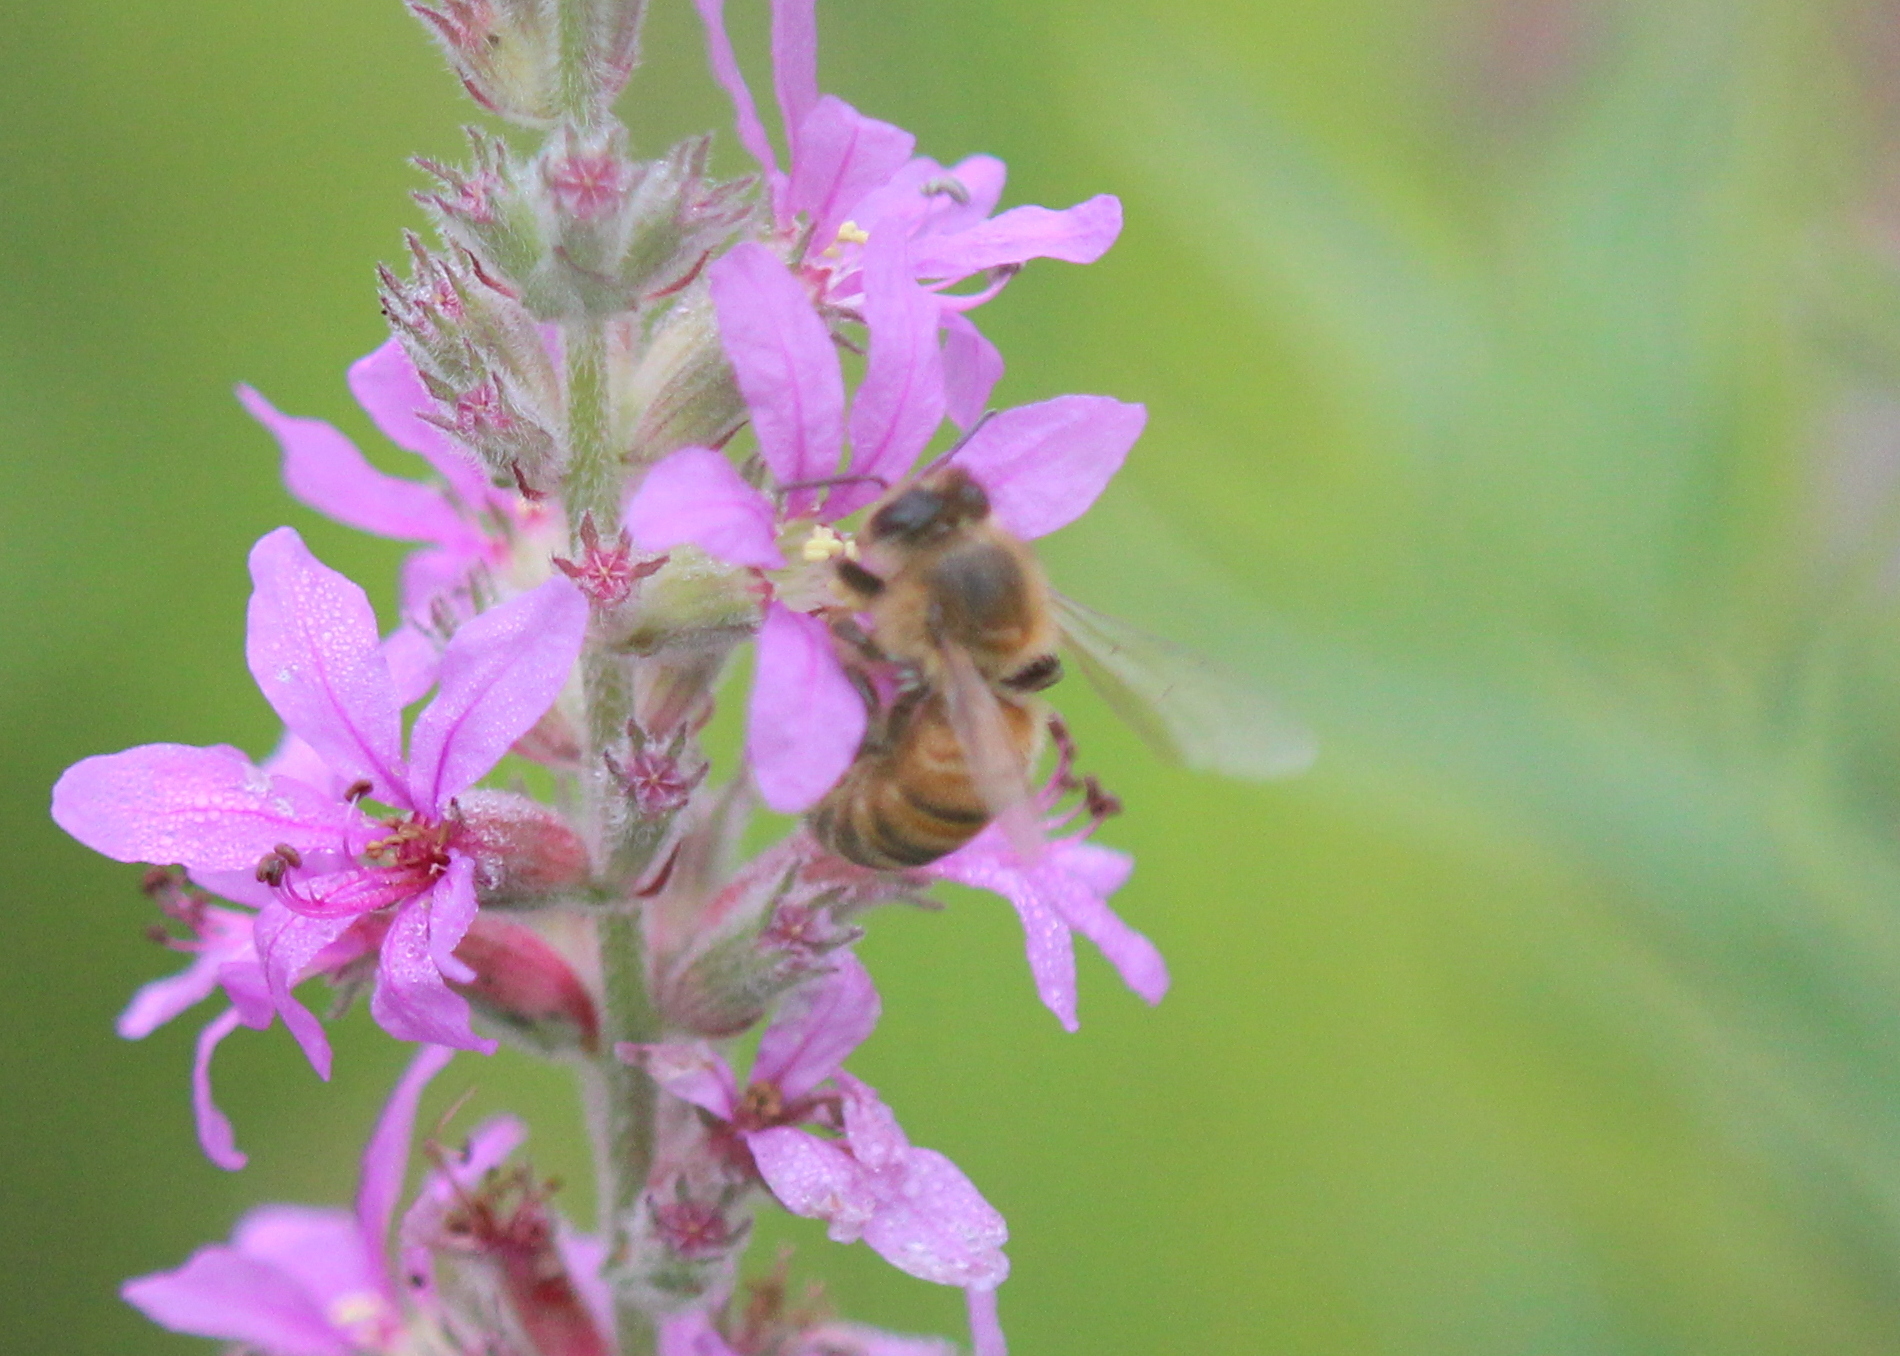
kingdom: Animalia
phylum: Arthropoda
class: Insecta
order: Hymenoptera
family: Apidae
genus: Apis
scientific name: Apis mellifera
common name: Honey bee
